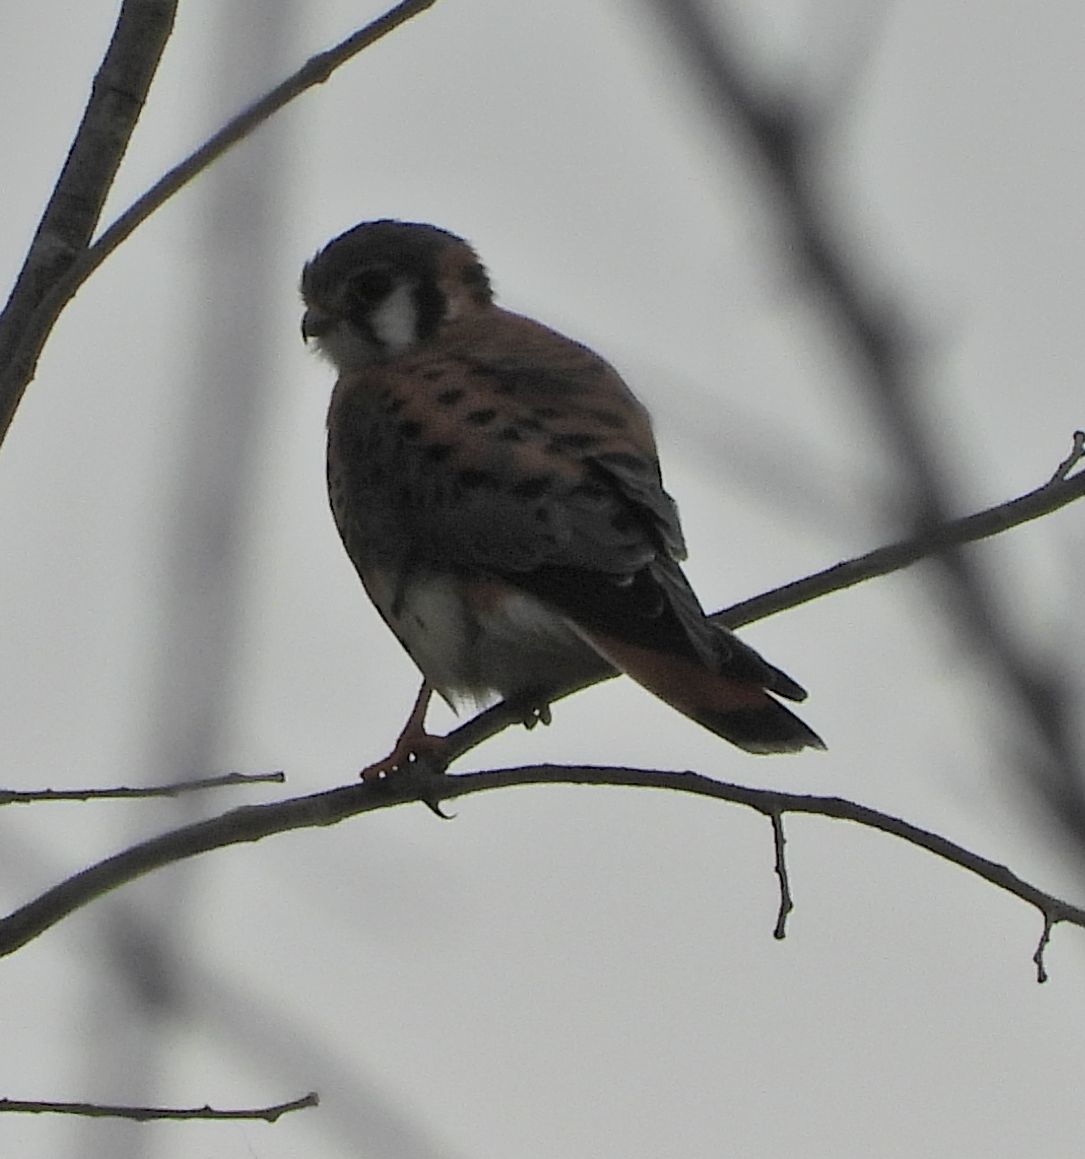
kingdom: Animalia
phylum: Chordata
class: Aves
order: Falconiformes
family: Falconidae
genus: Falco
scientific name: Falco sparverius
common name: American kestrel
